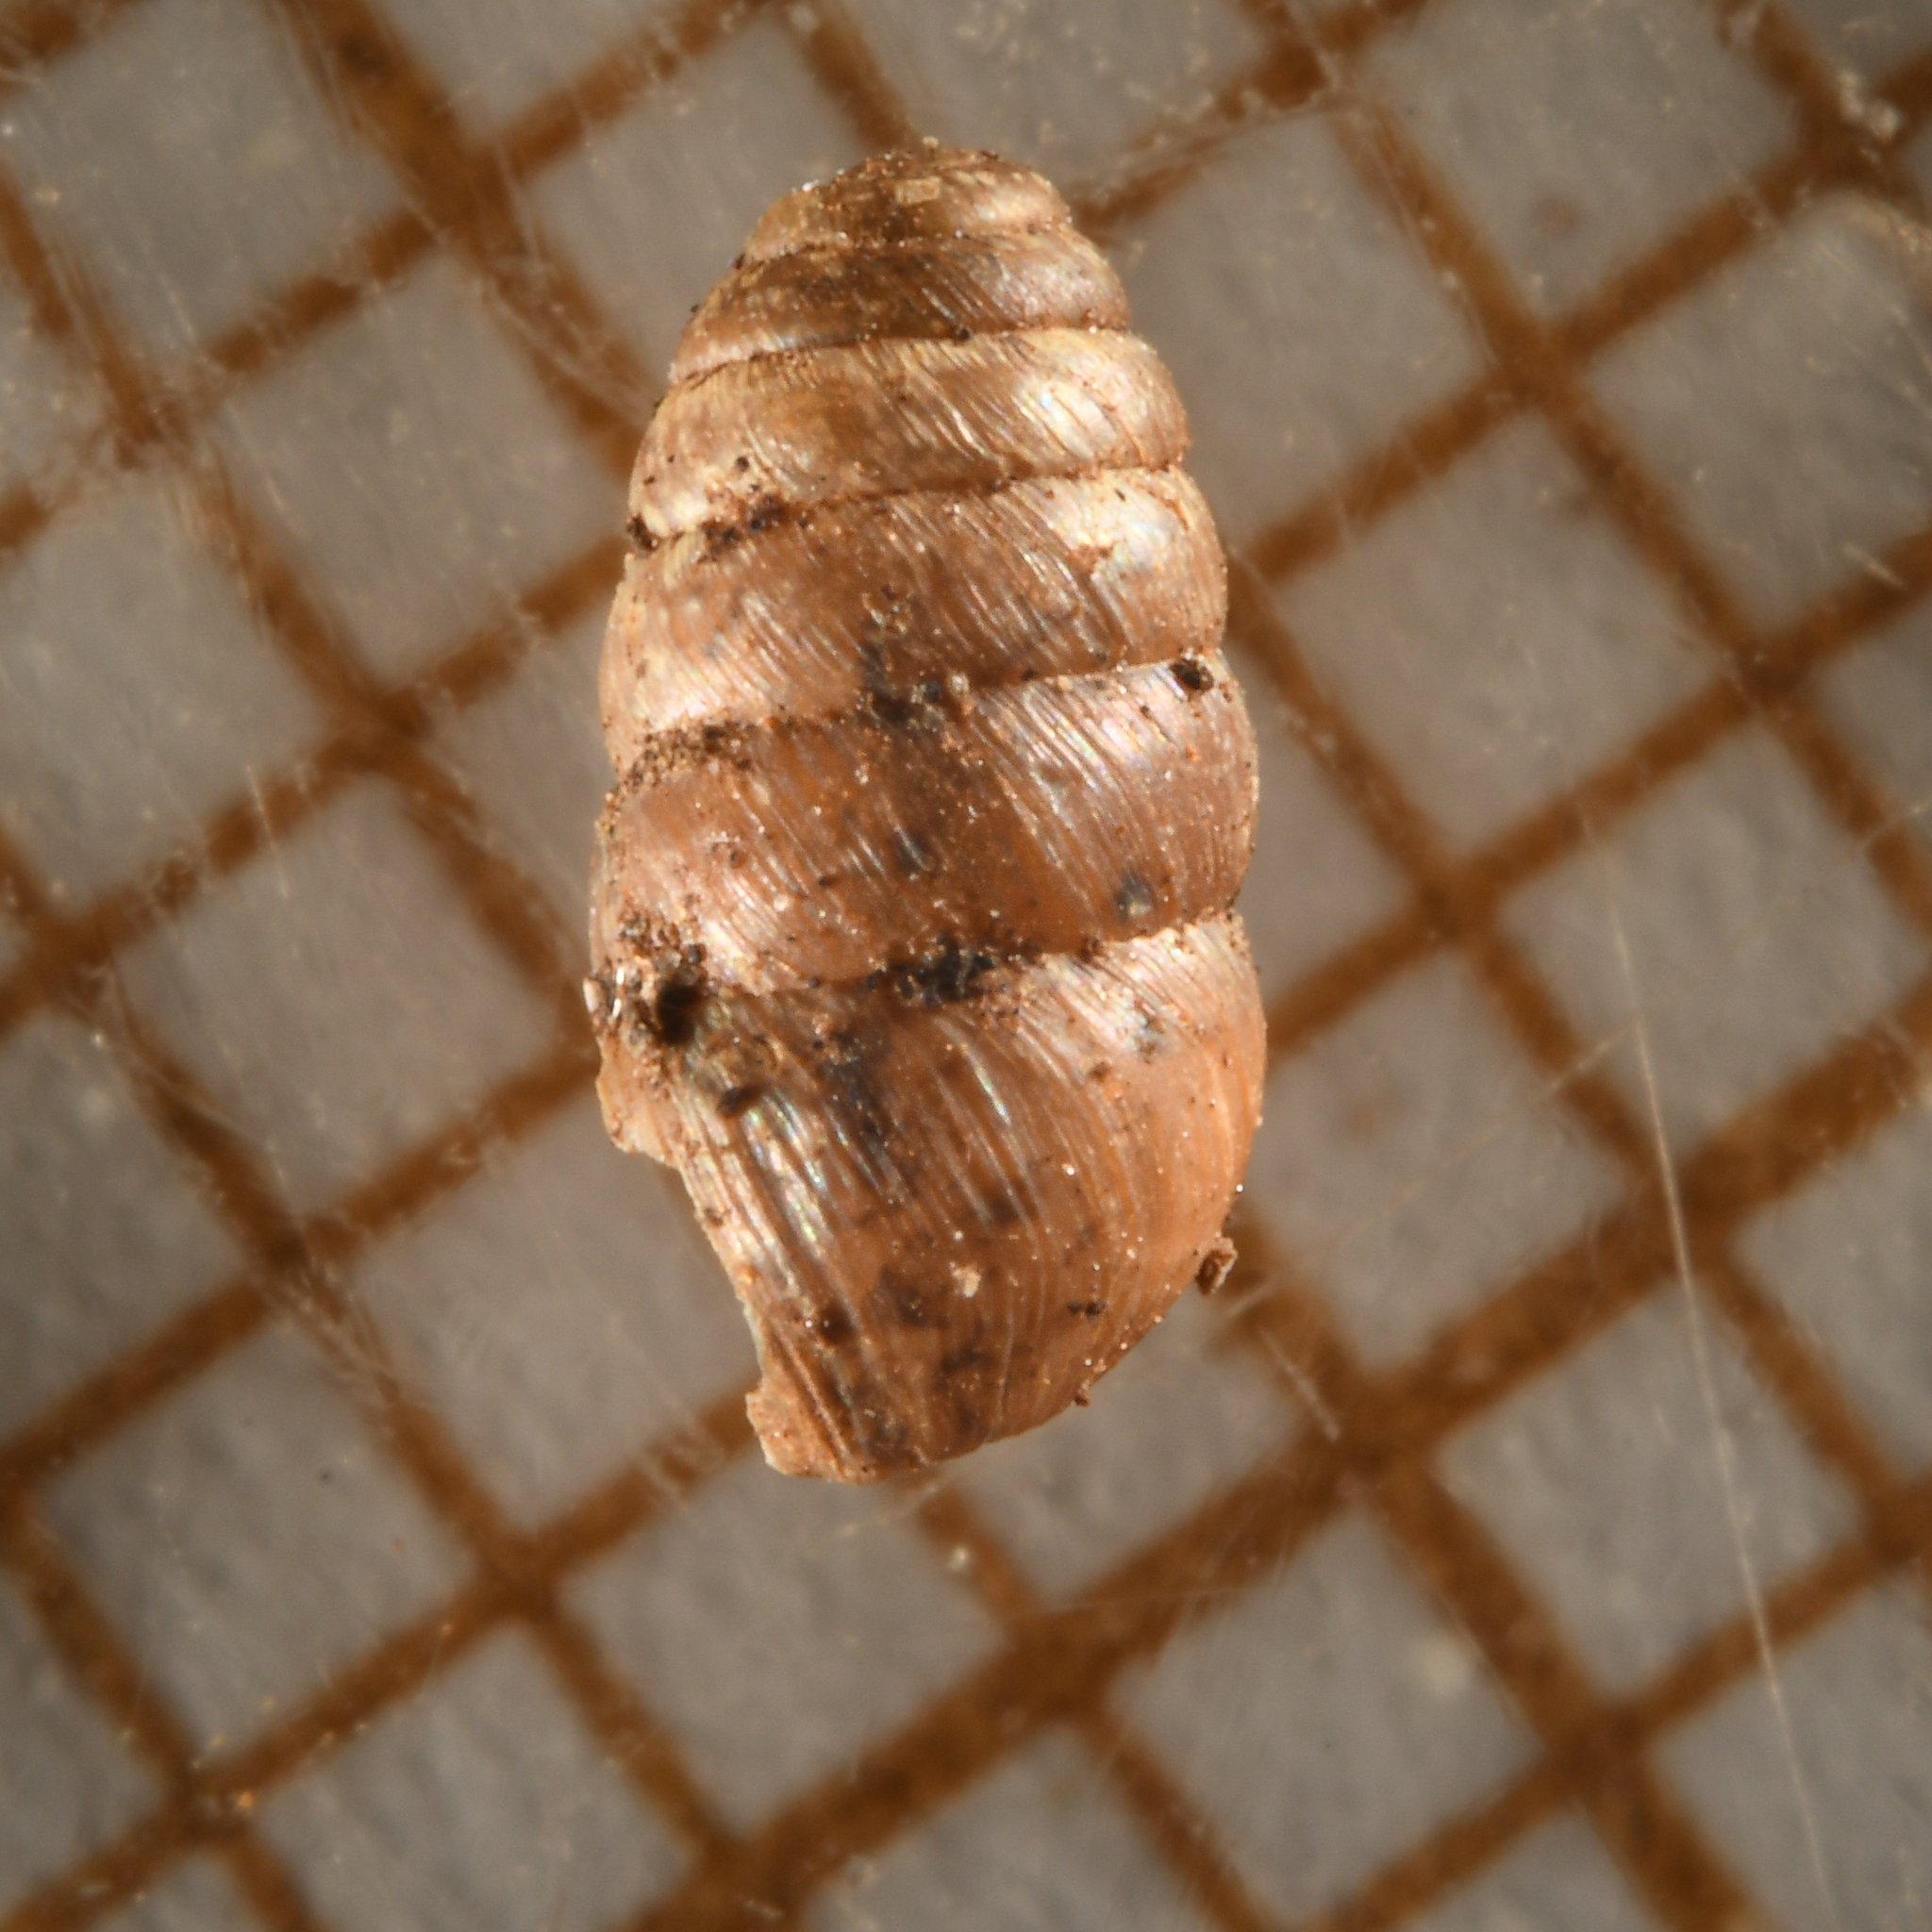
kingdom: Animalia
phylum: Mollusca
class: Gastropoda
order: Stylommatophora
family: Lauriidae
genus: Lauria
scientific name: Lauria cylindracea
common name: Common chrysalis snail
